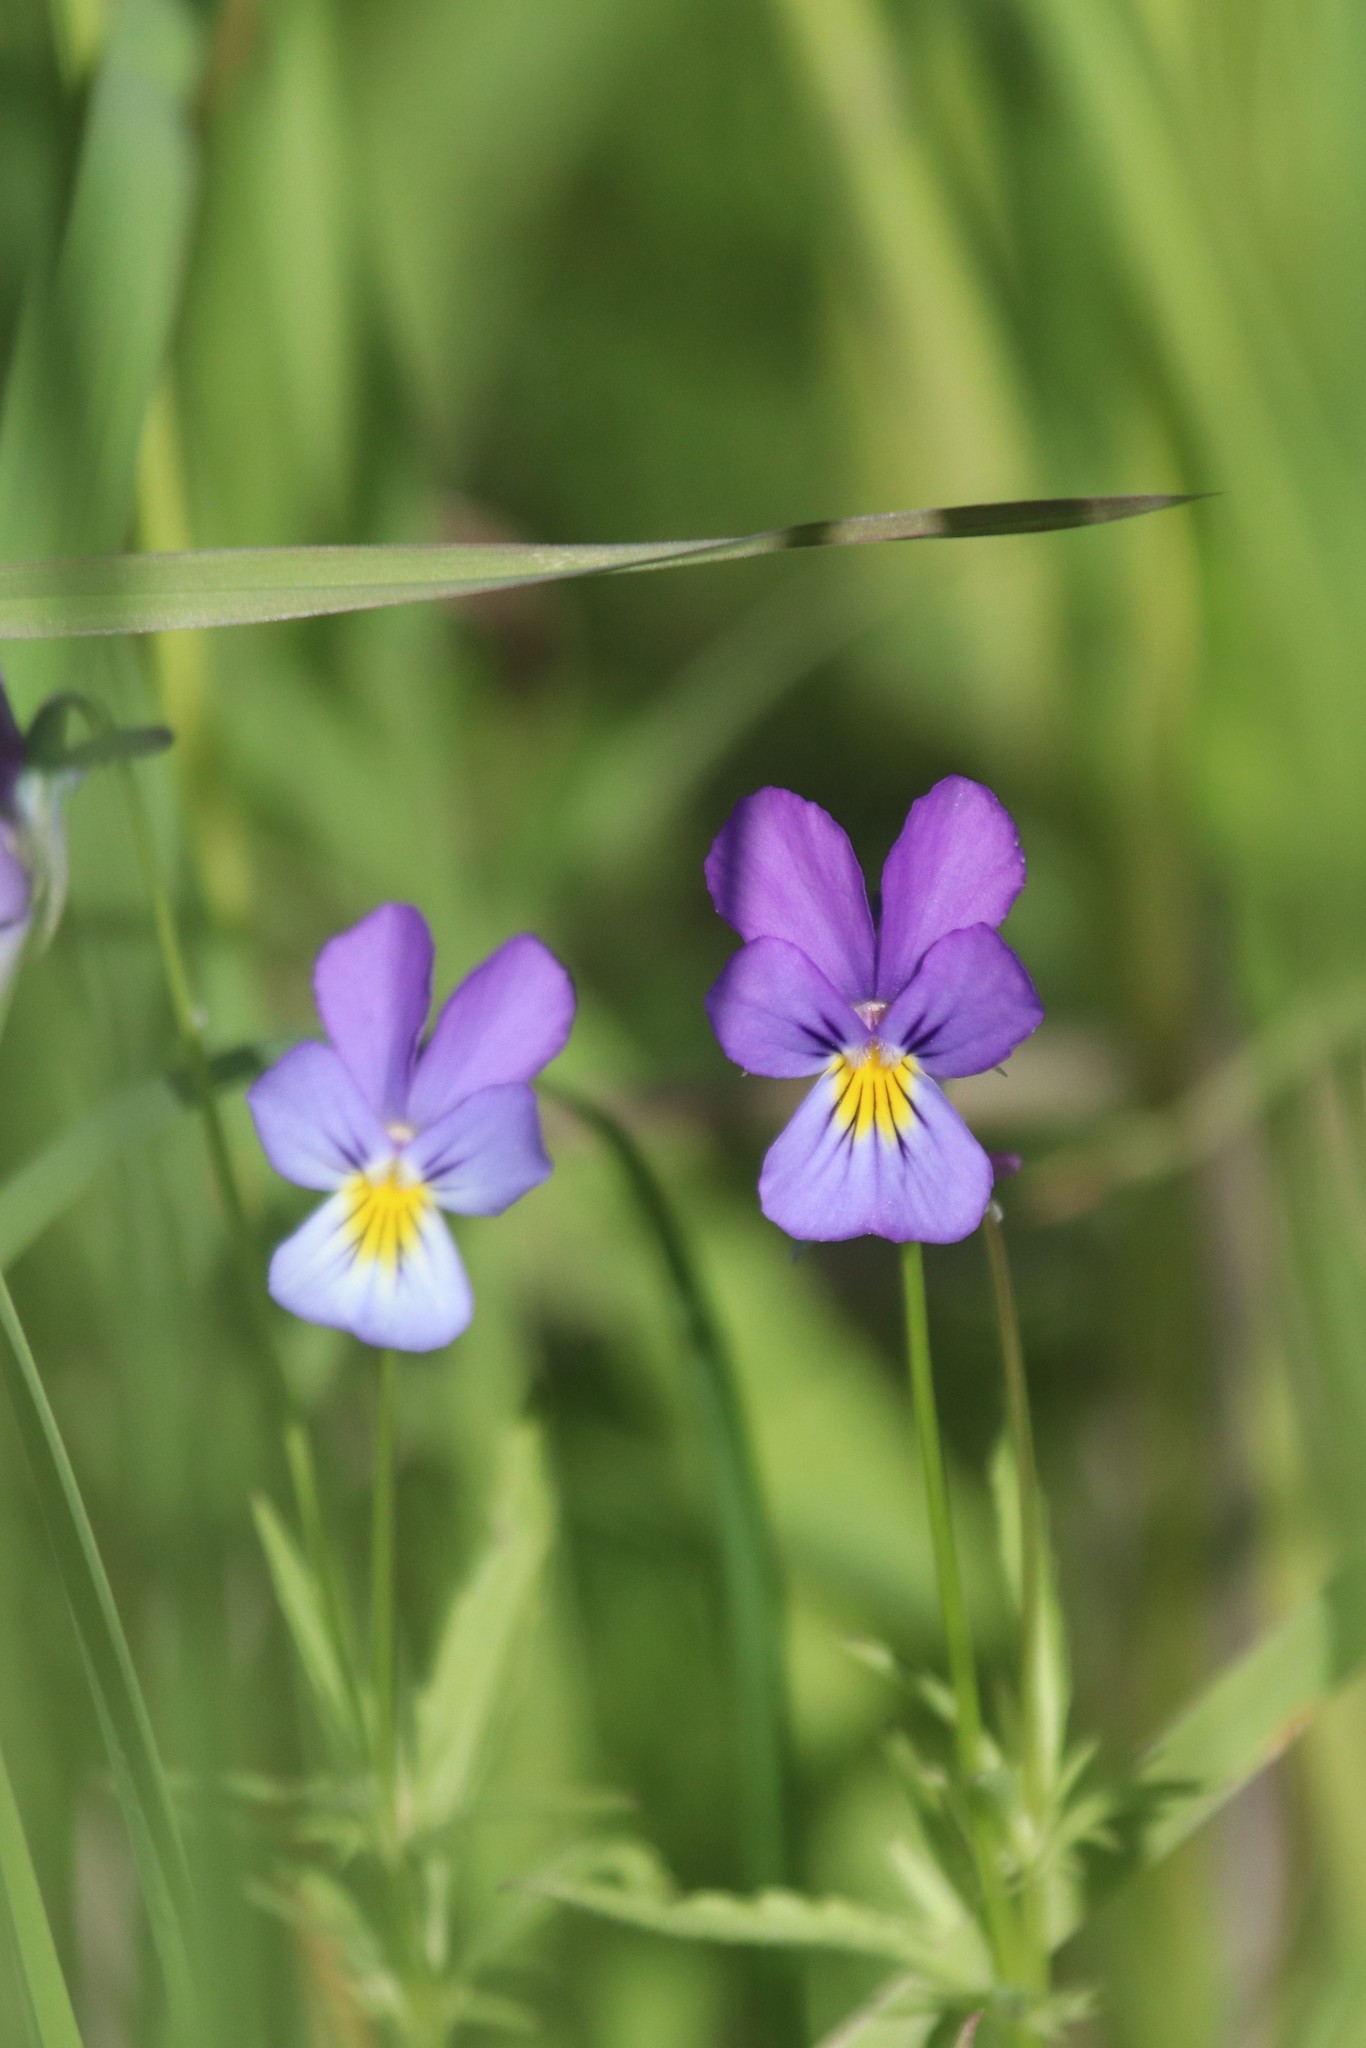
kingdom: Plantae
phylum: Tracheophyta
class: Magnoliopsida
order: Malpighiales
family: Violaceae
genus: Viola
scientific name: Viola tricolor
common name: Pansy
